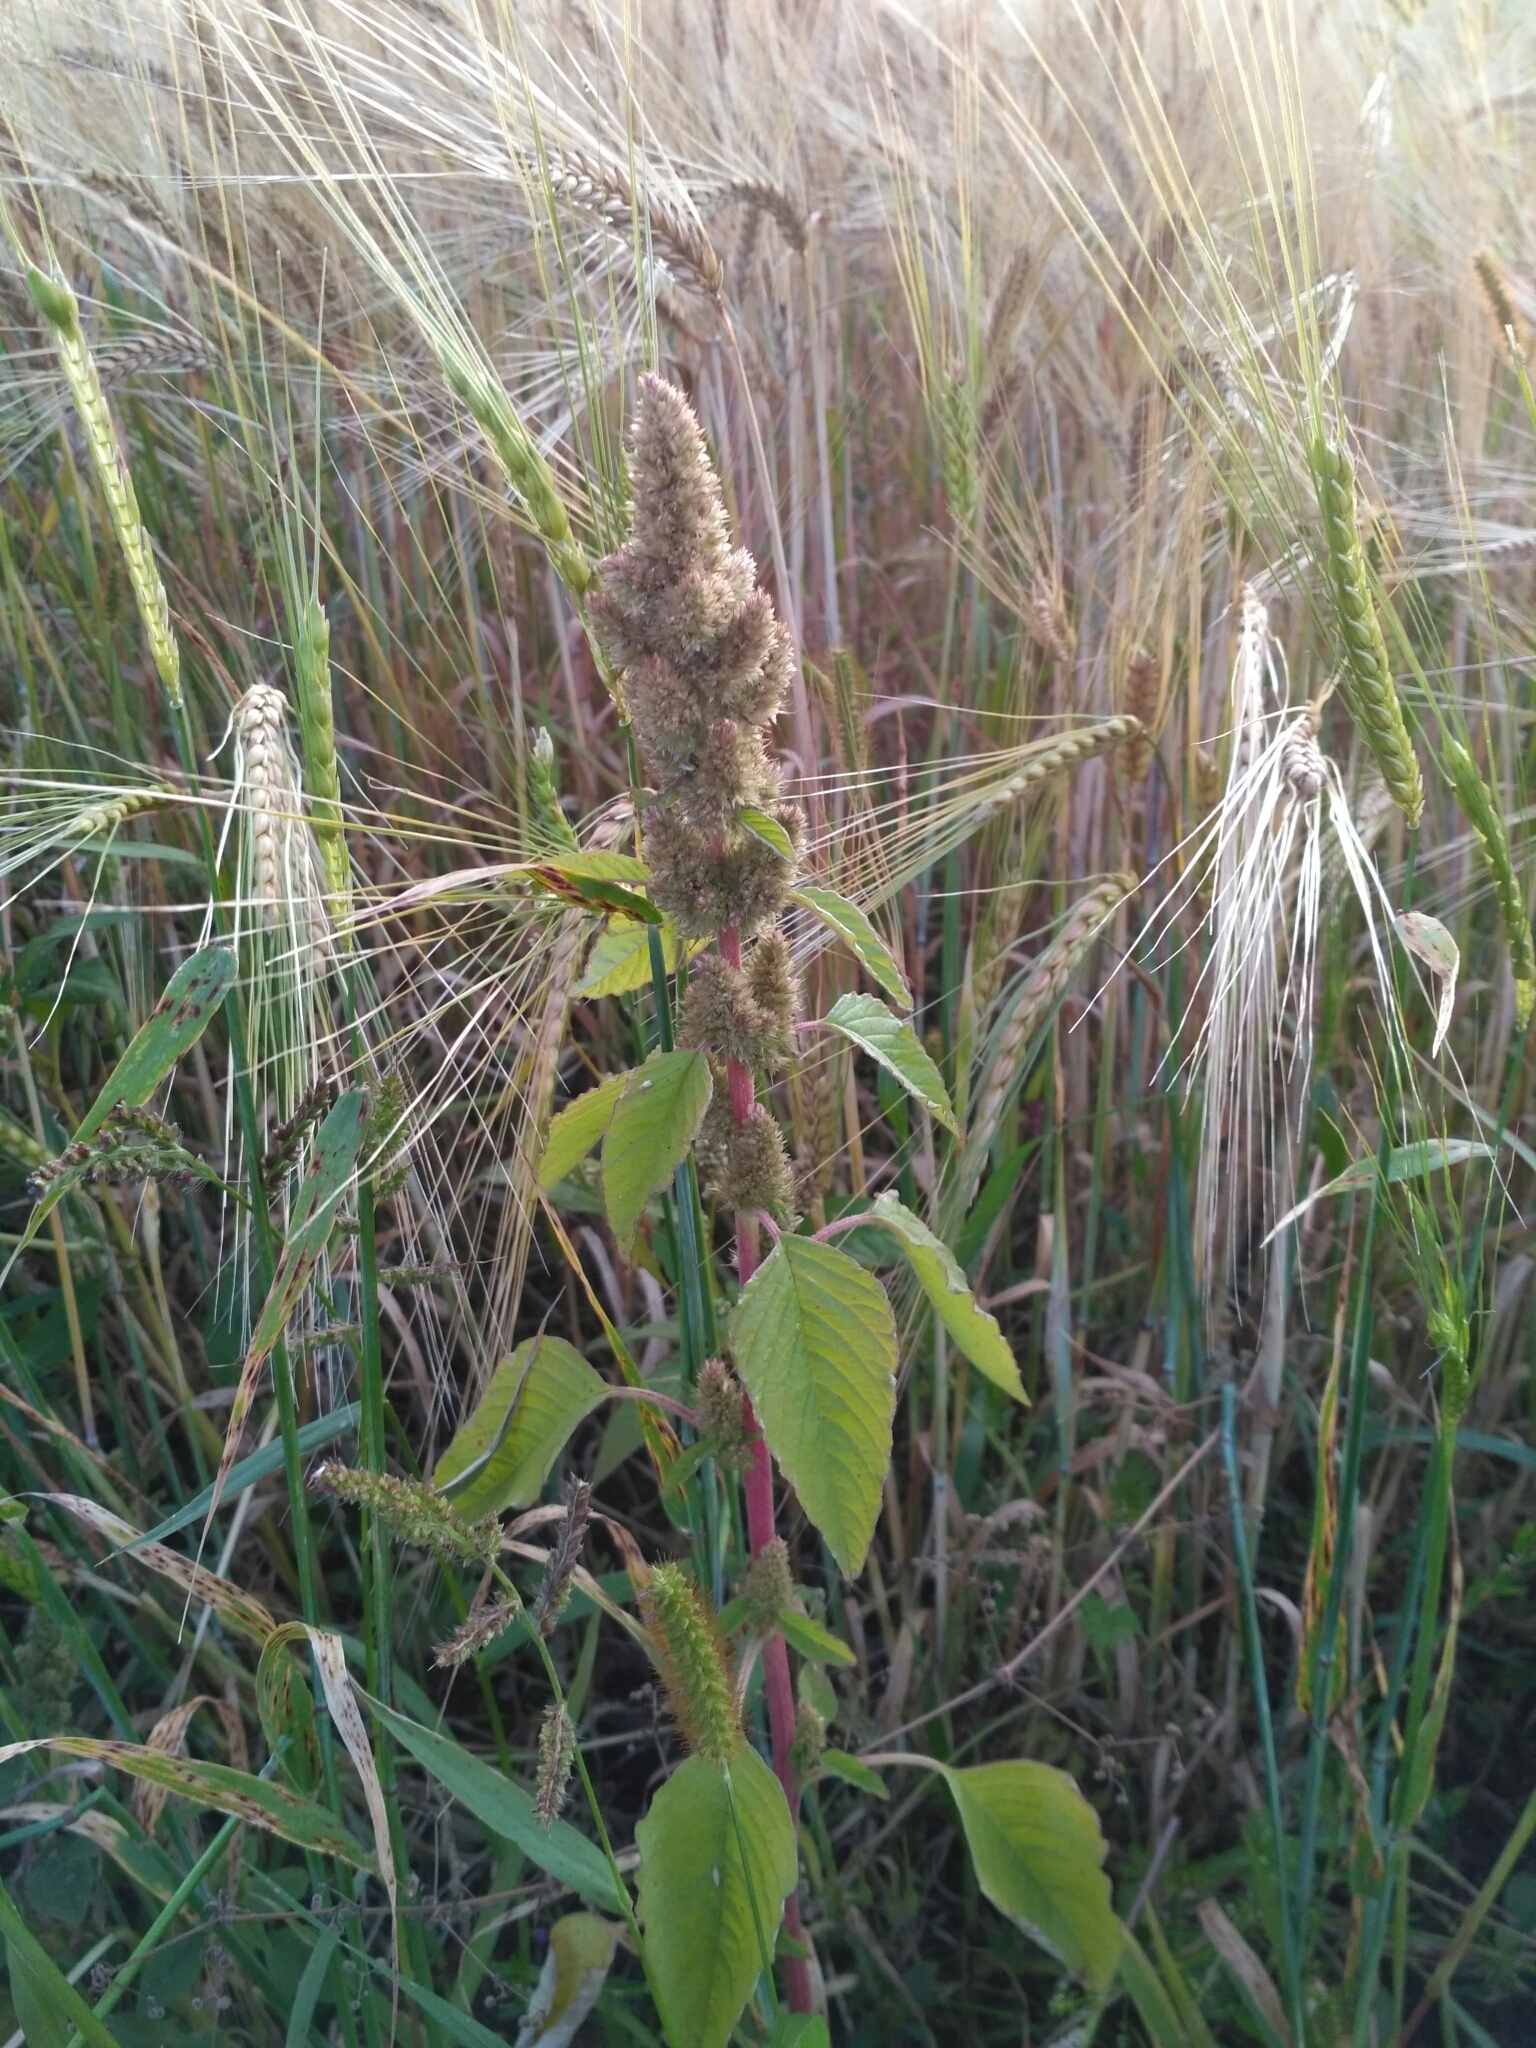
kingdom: Plantae
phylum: Tracheophyta
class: Magnoliopsida
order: Caryophyllales
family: Amaranthaceae
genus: Amaranthus
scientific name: Amaranthus retroflexus
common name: Redroot amaranth
